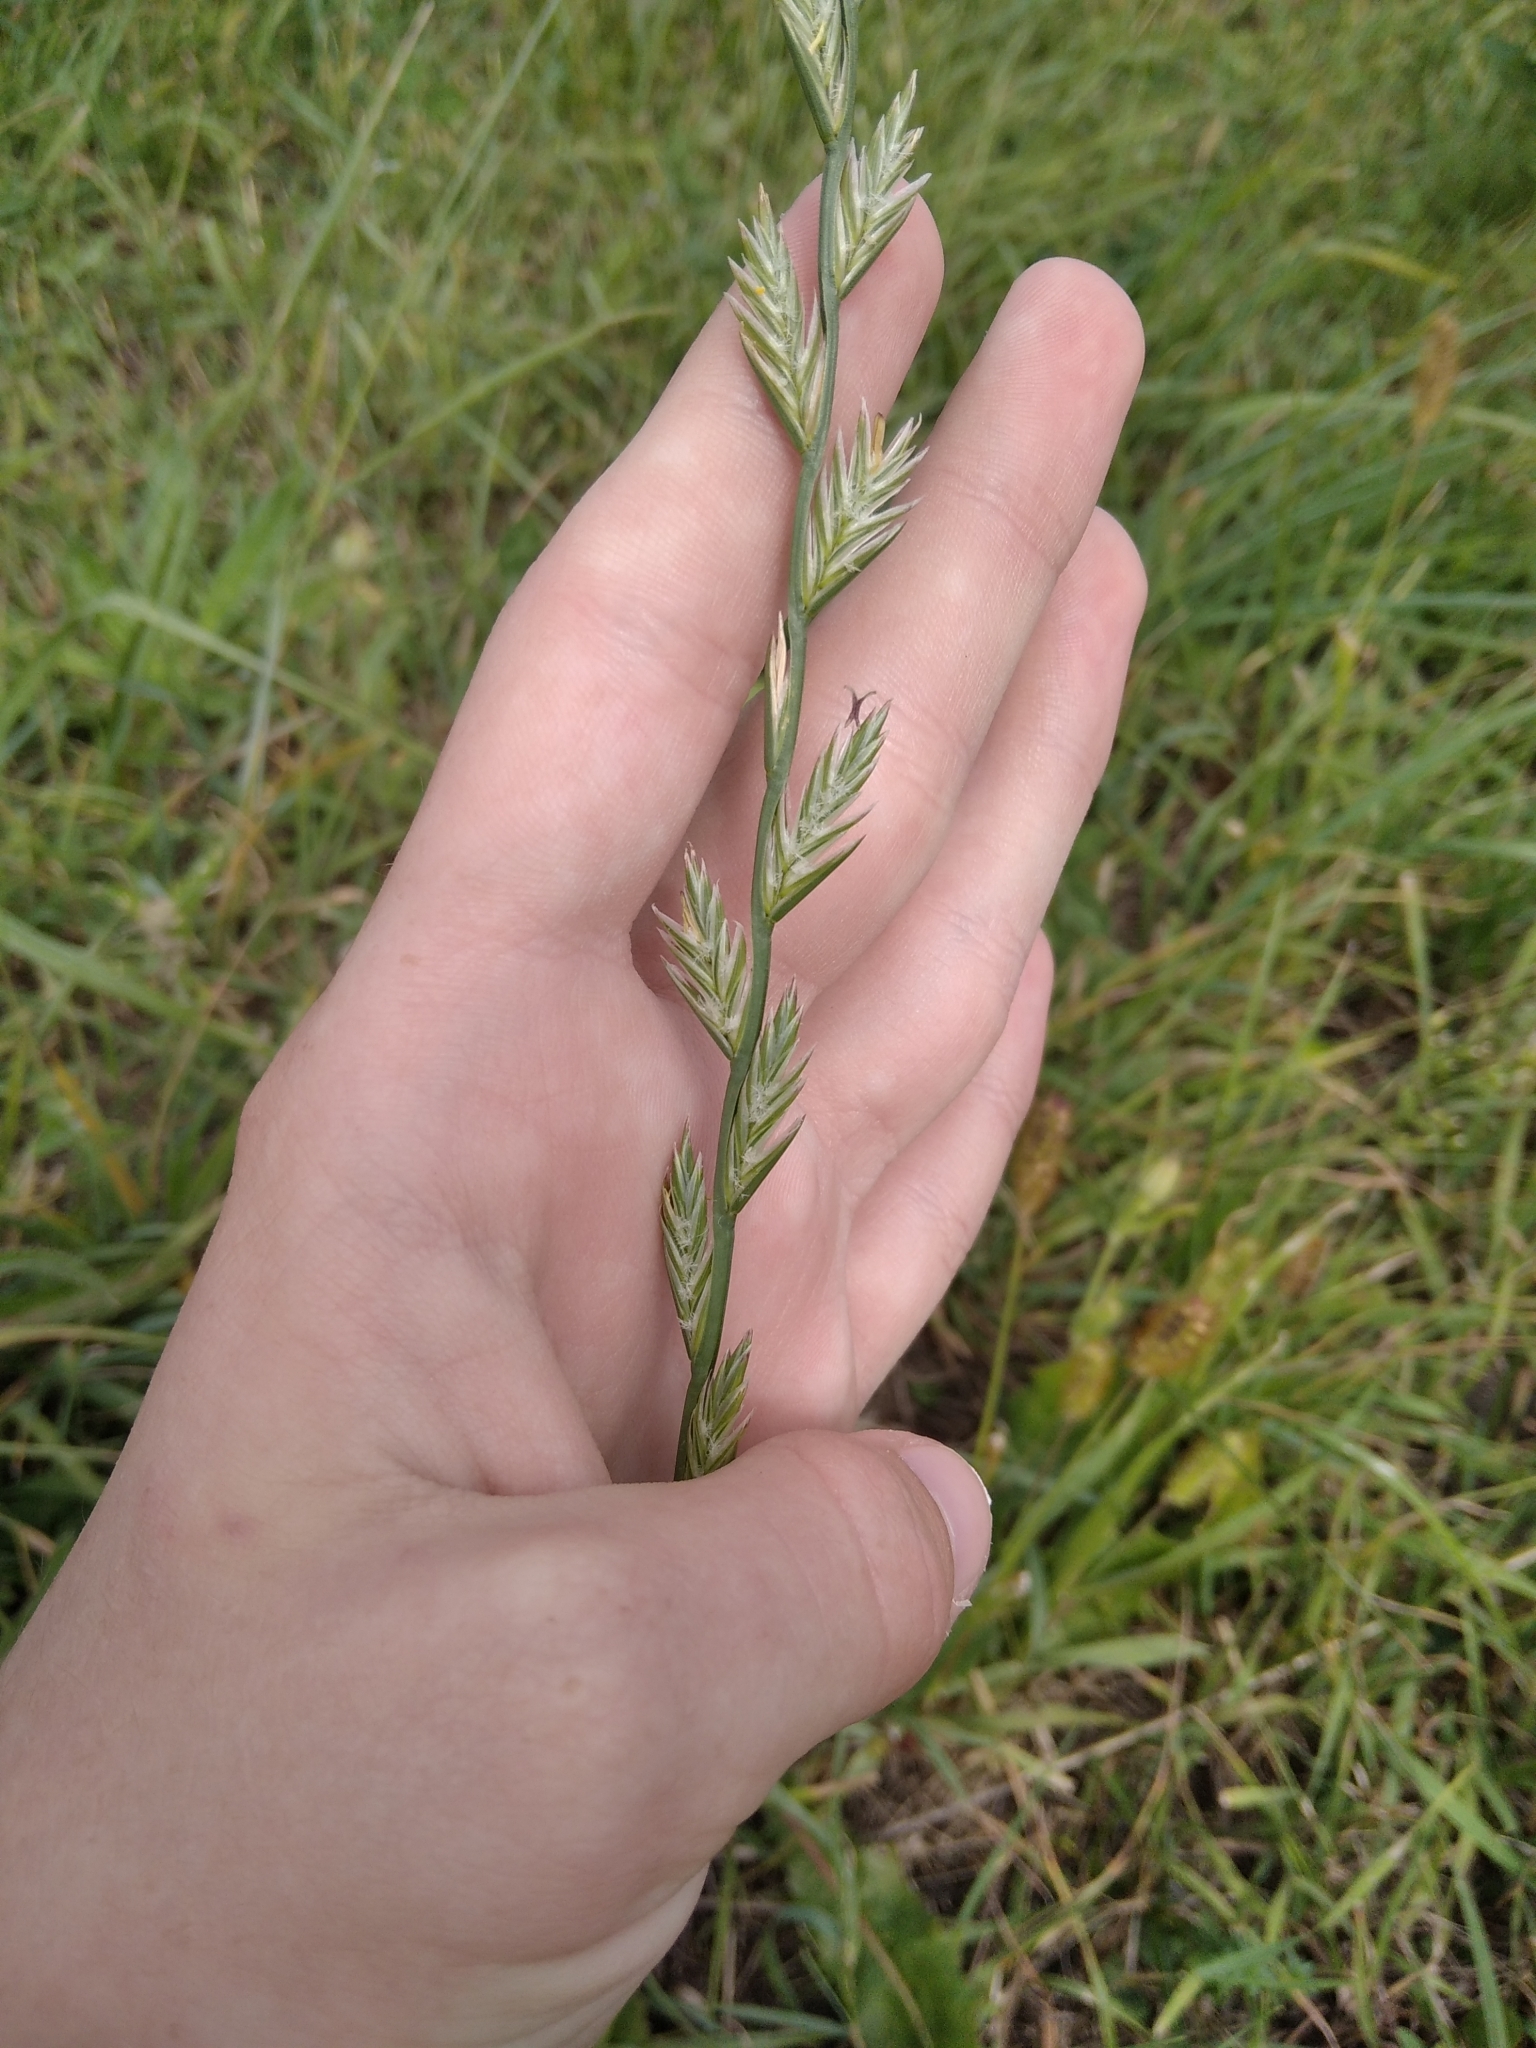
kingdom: Plantae
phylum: Tracheophyta
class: Liliopsida
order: Poales
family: Poaceae
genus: Lolium
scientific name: Lolium perenne
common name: Perennial ryegrass
